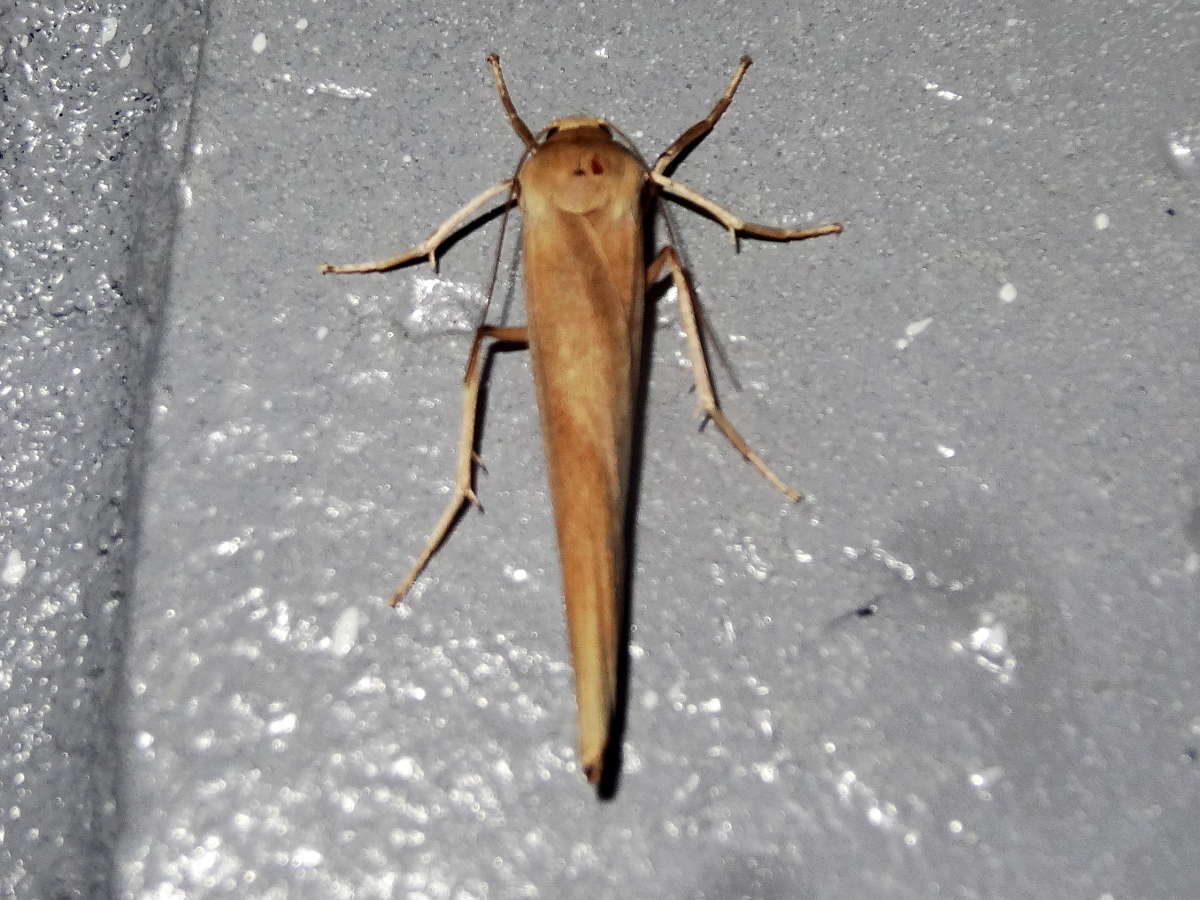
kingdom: Animalia
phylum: Arthropoda
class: Insecta
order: Lepidoptera
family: Erebidae
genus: Calamidia
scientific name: Calamidia hirta
